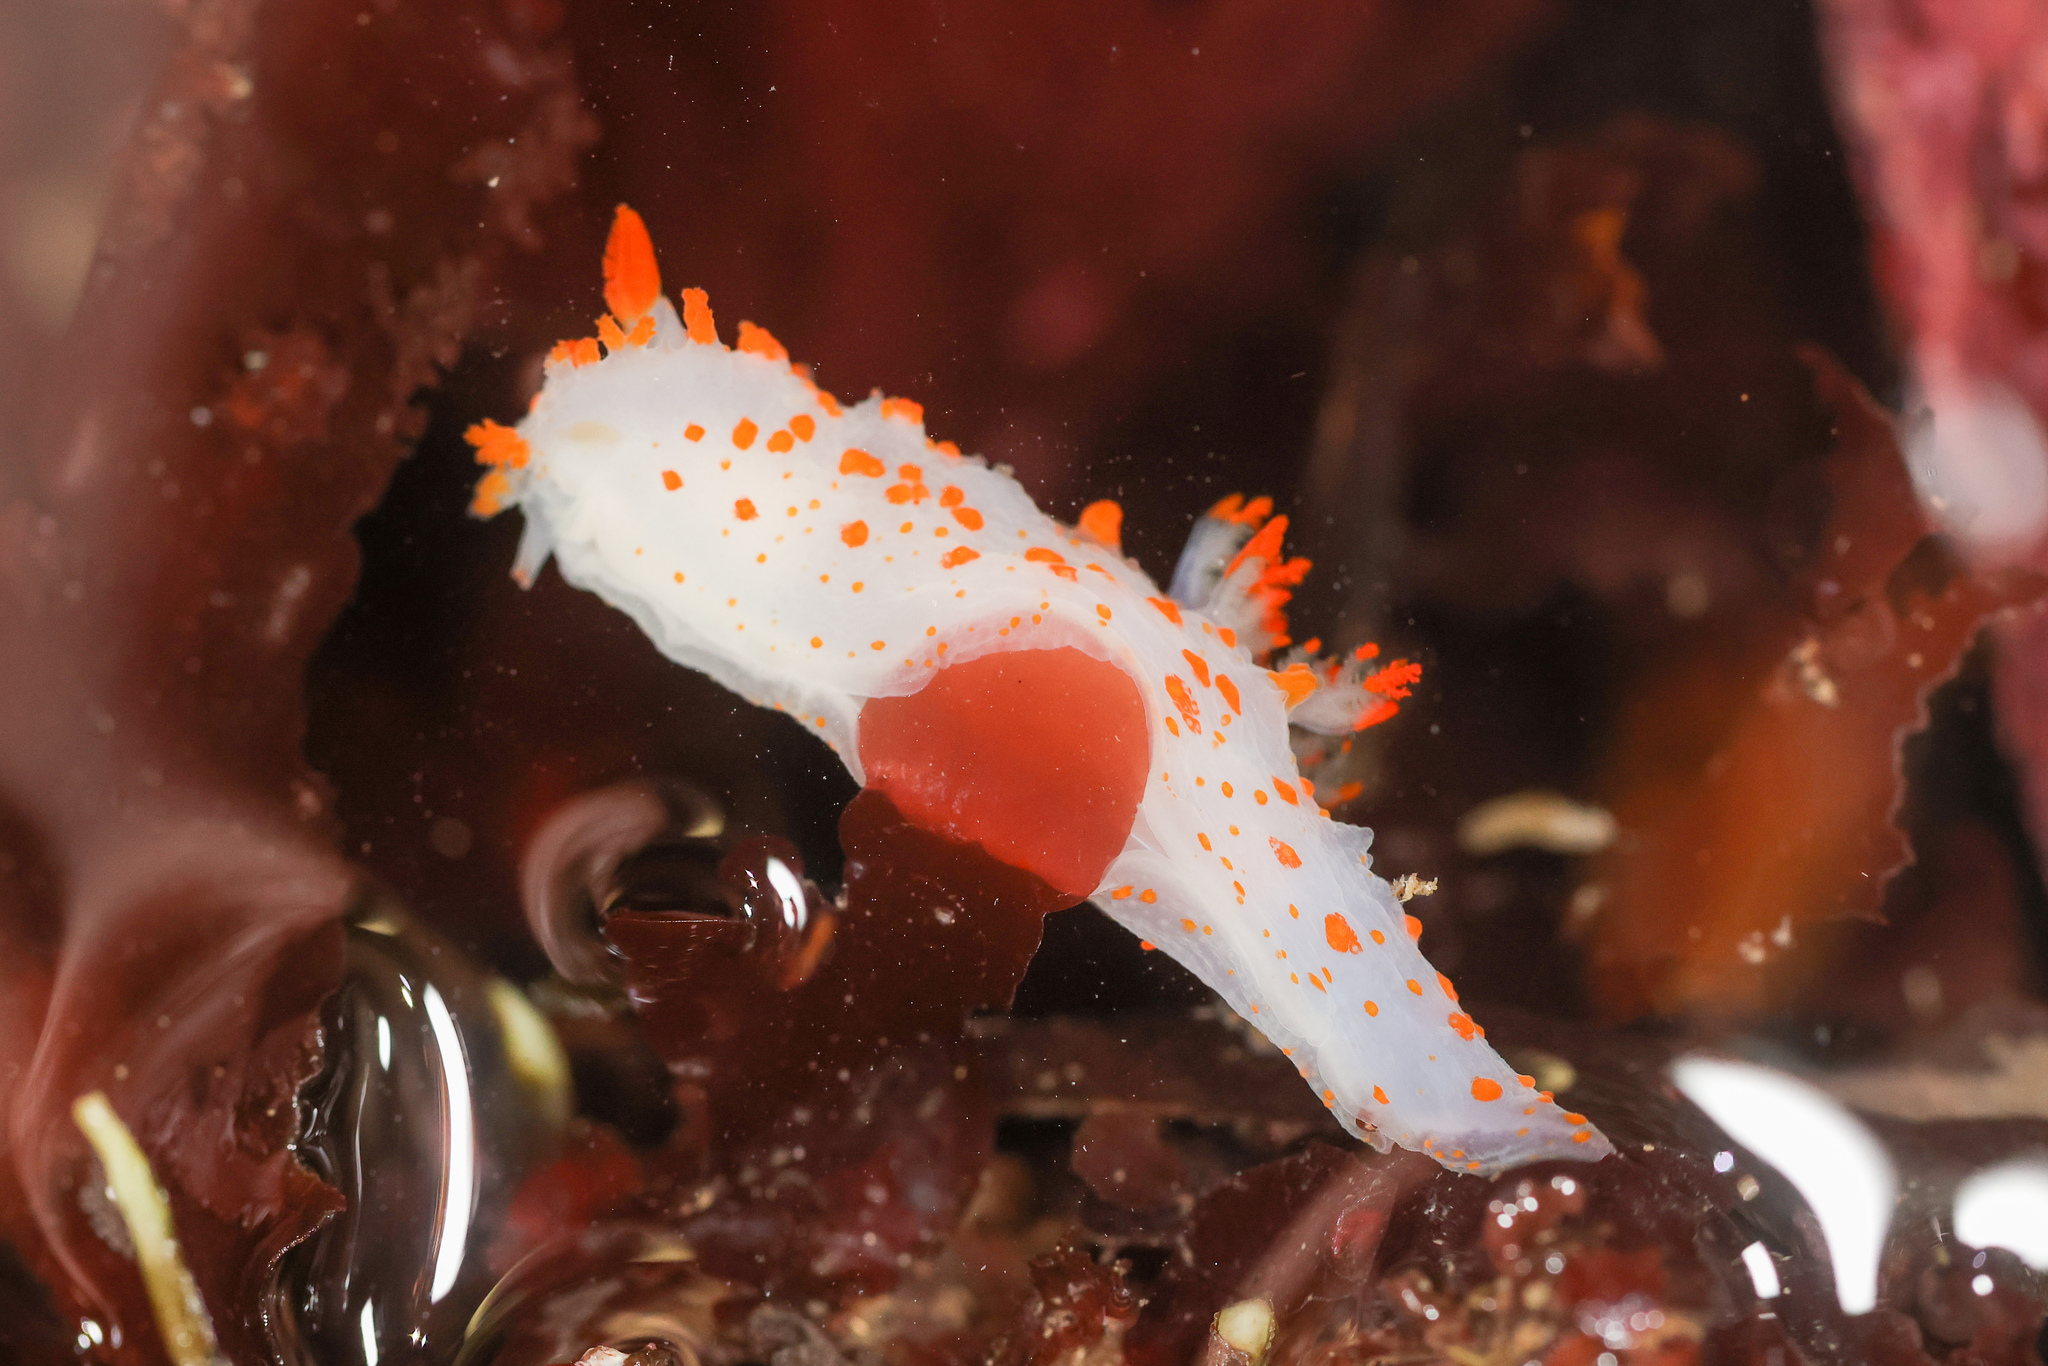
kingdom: Animalia
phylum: Mollusca
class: Gastropoda
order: Nudibranchia
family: Polyceridae
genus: Triopha
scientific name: Triopha catalinae
